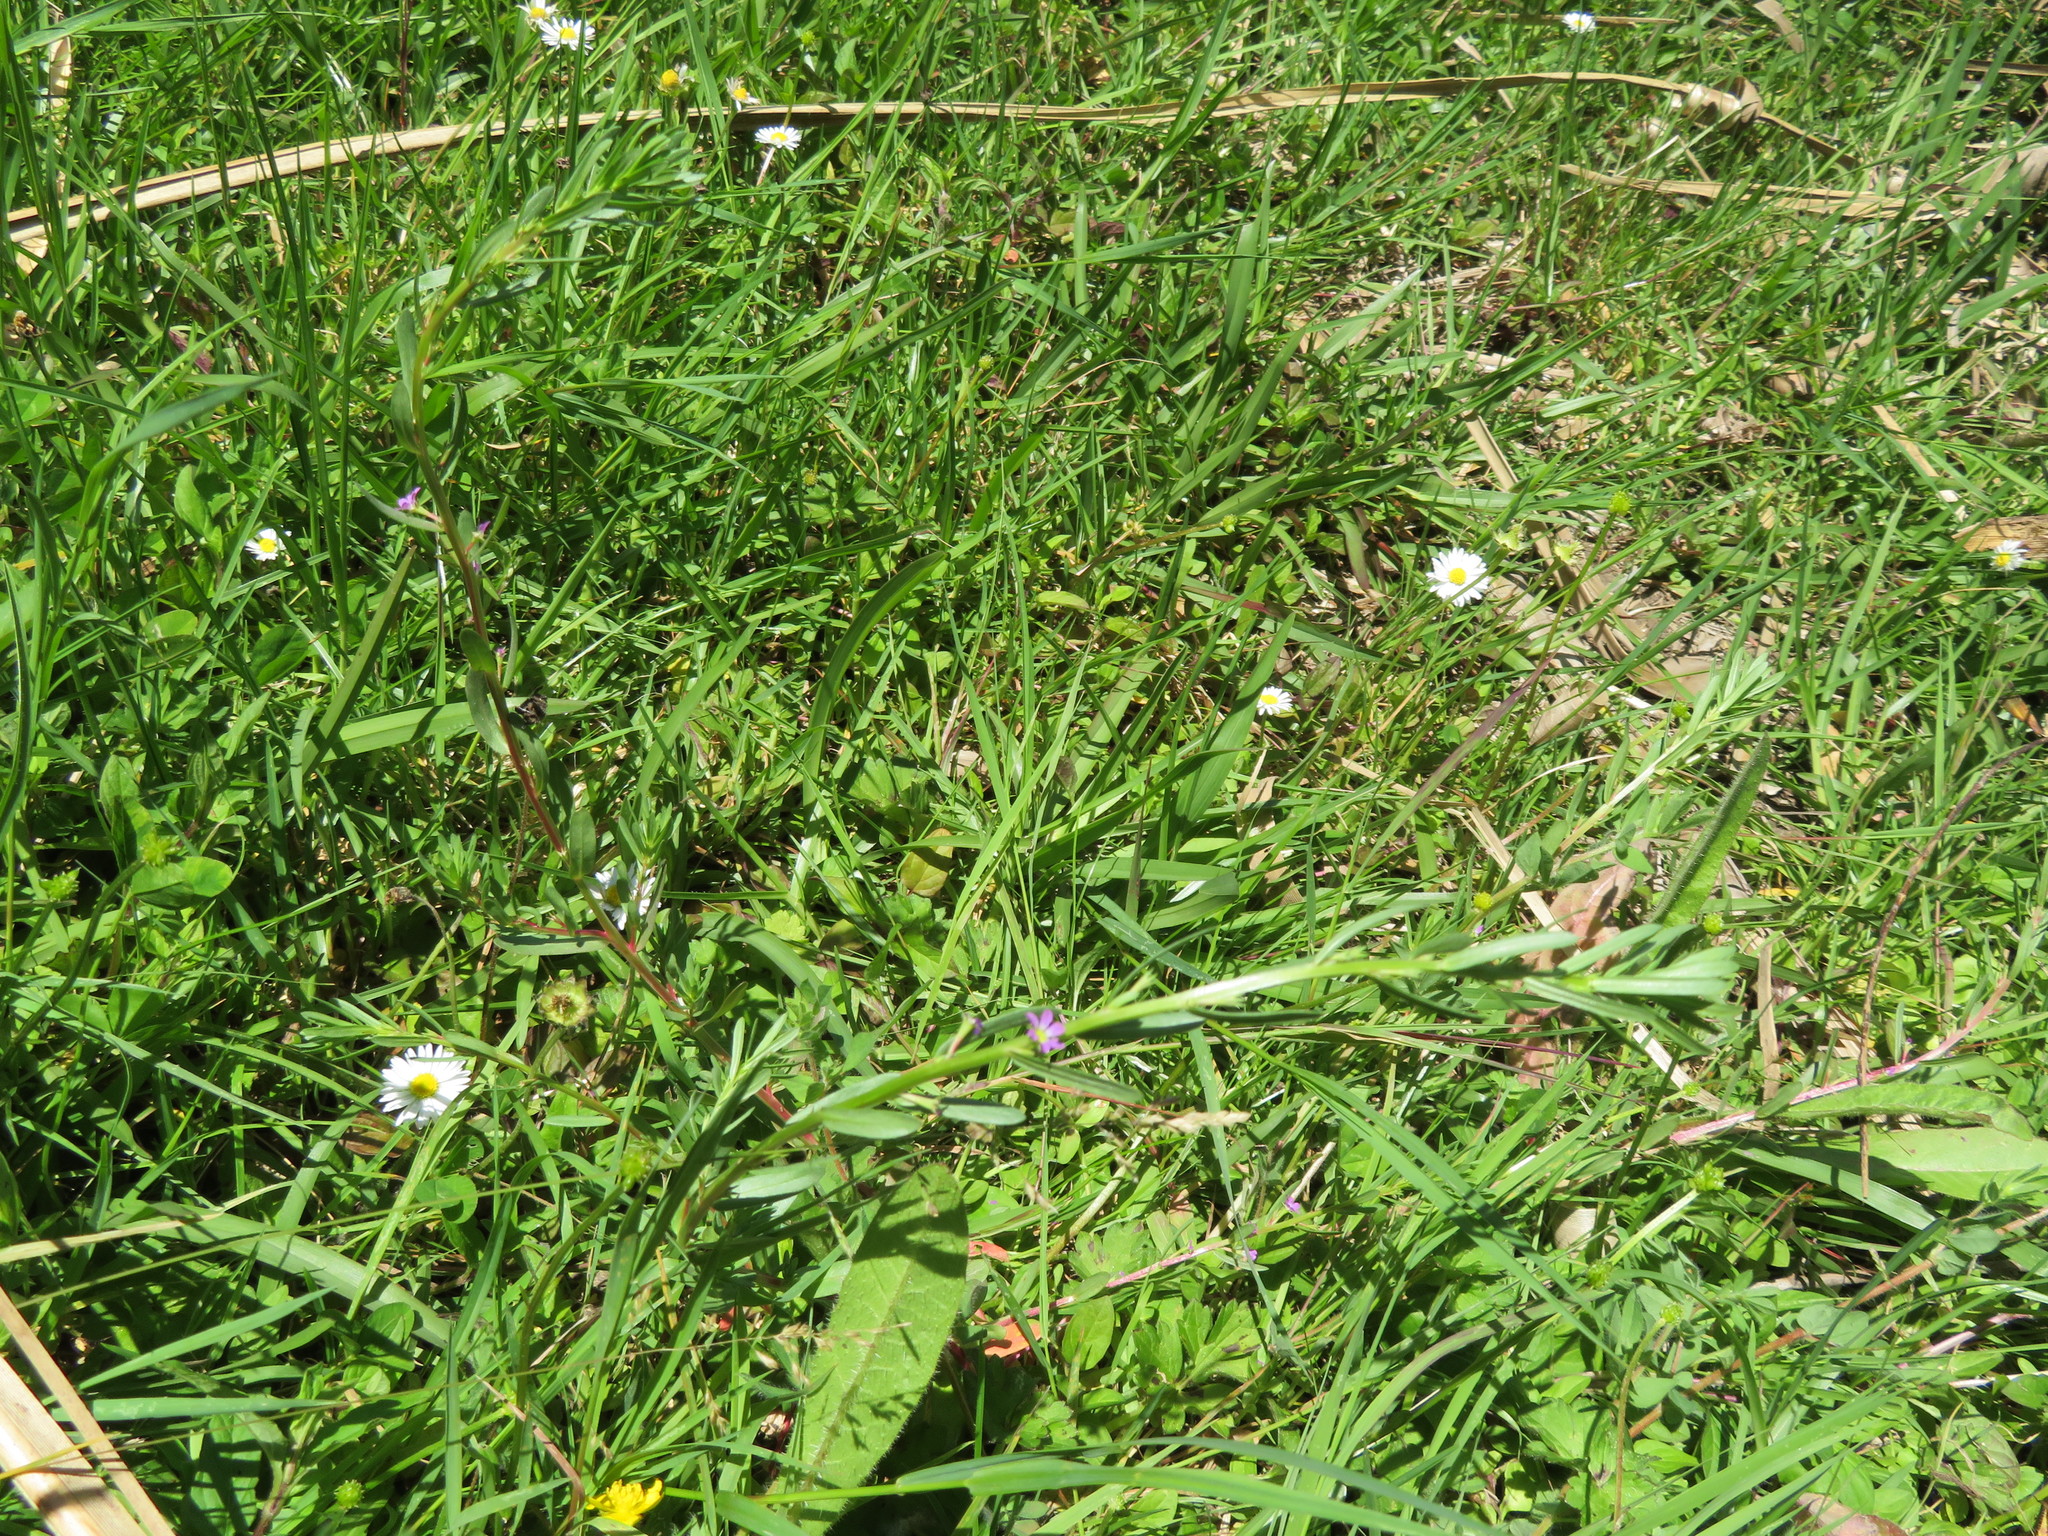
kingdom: Plantae
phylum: Tracheophyta
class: Magnoliopsida
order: Myrtales
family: Lythraceae
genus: Lythrum
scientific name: Lythrum hyssopifolia
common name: Grass-poly
